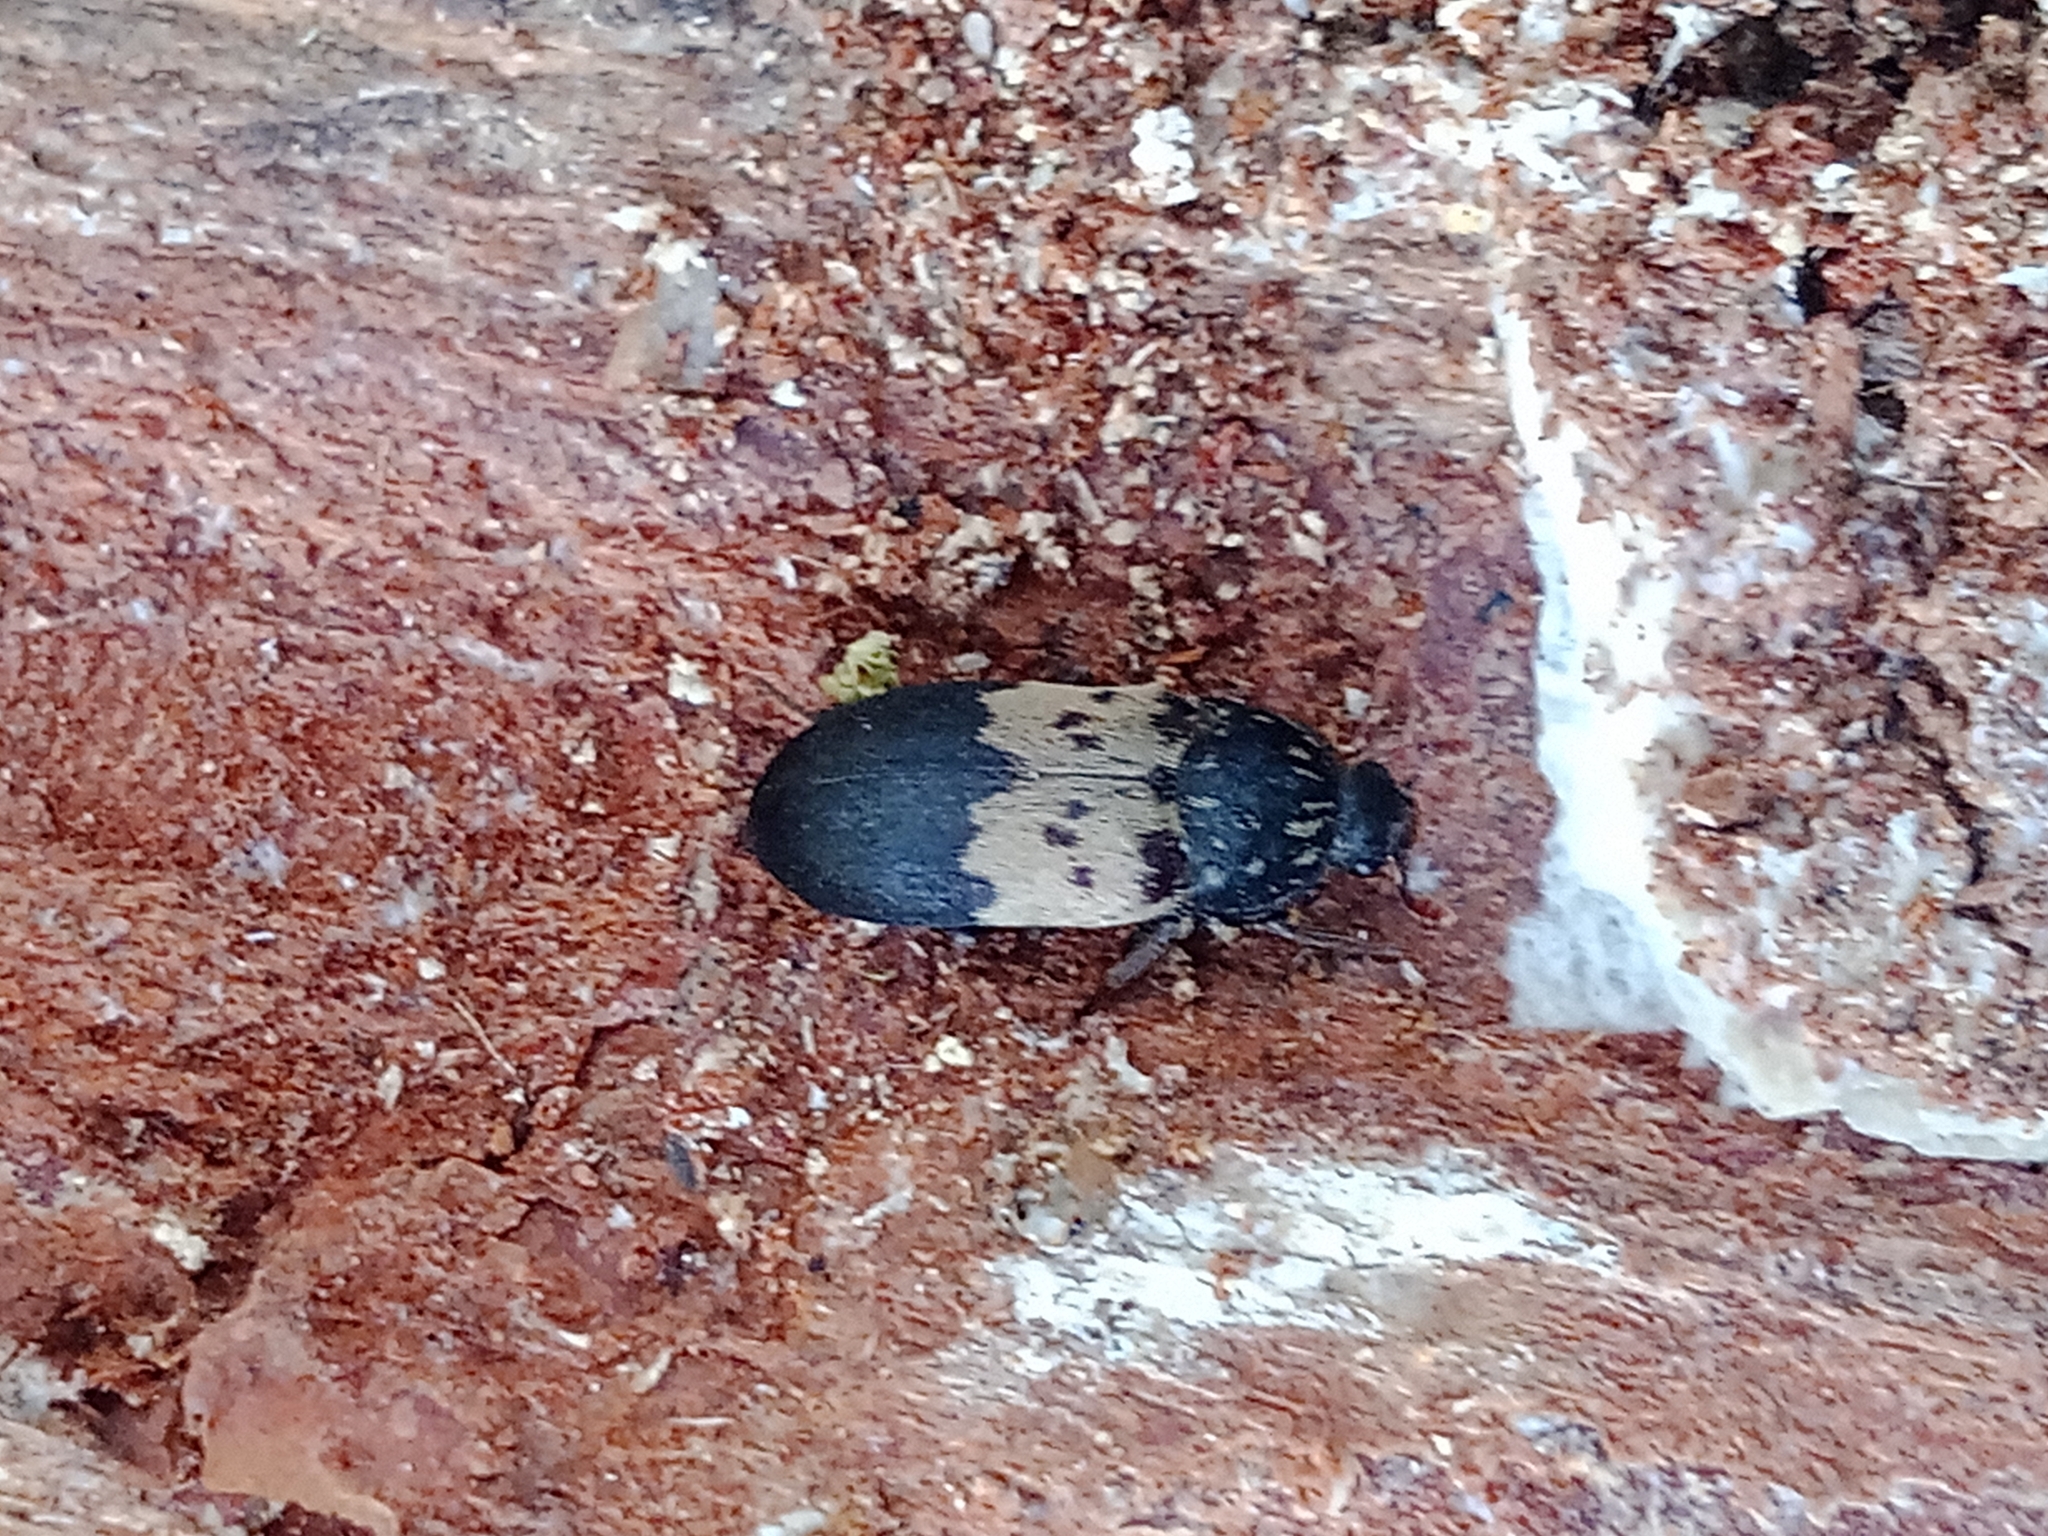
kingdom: Animalia
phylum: Arthropoda
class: Insecta
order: Coleoptera
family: Dermestidae
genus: Dermestes
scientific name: Dermestes lardarius
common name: Larder beetle
